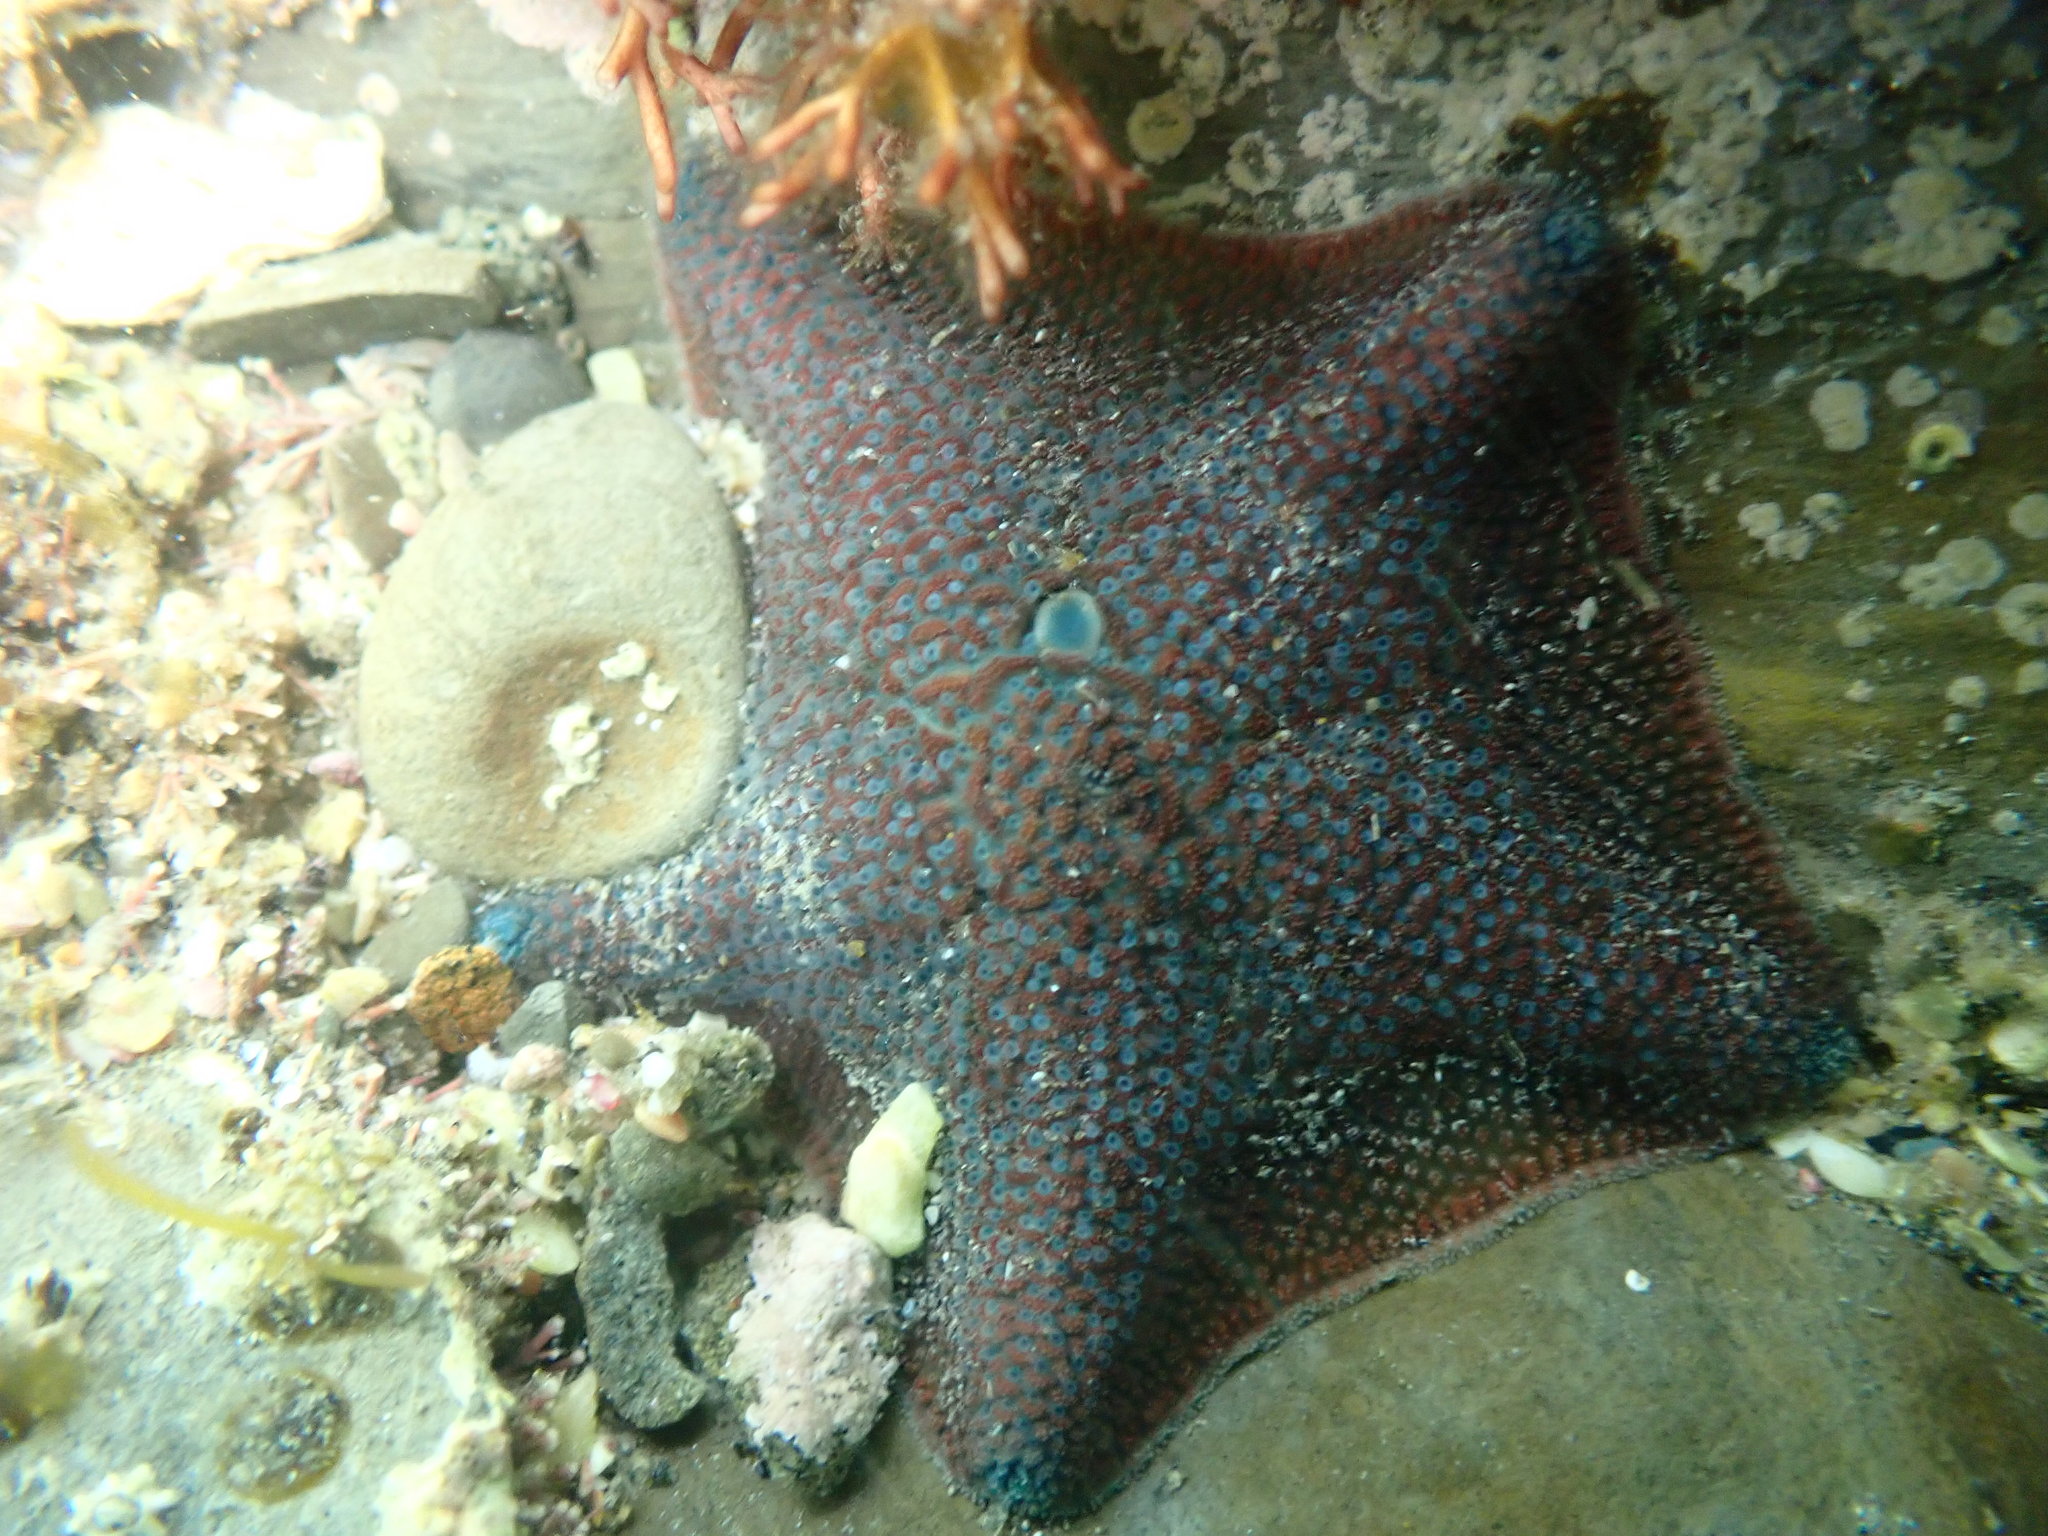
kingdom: Animalia
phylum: Echinodermata
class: Asteroidea
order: Valvatida
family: Asterinidae
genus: Patiriella
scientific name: Patiriella regularis
